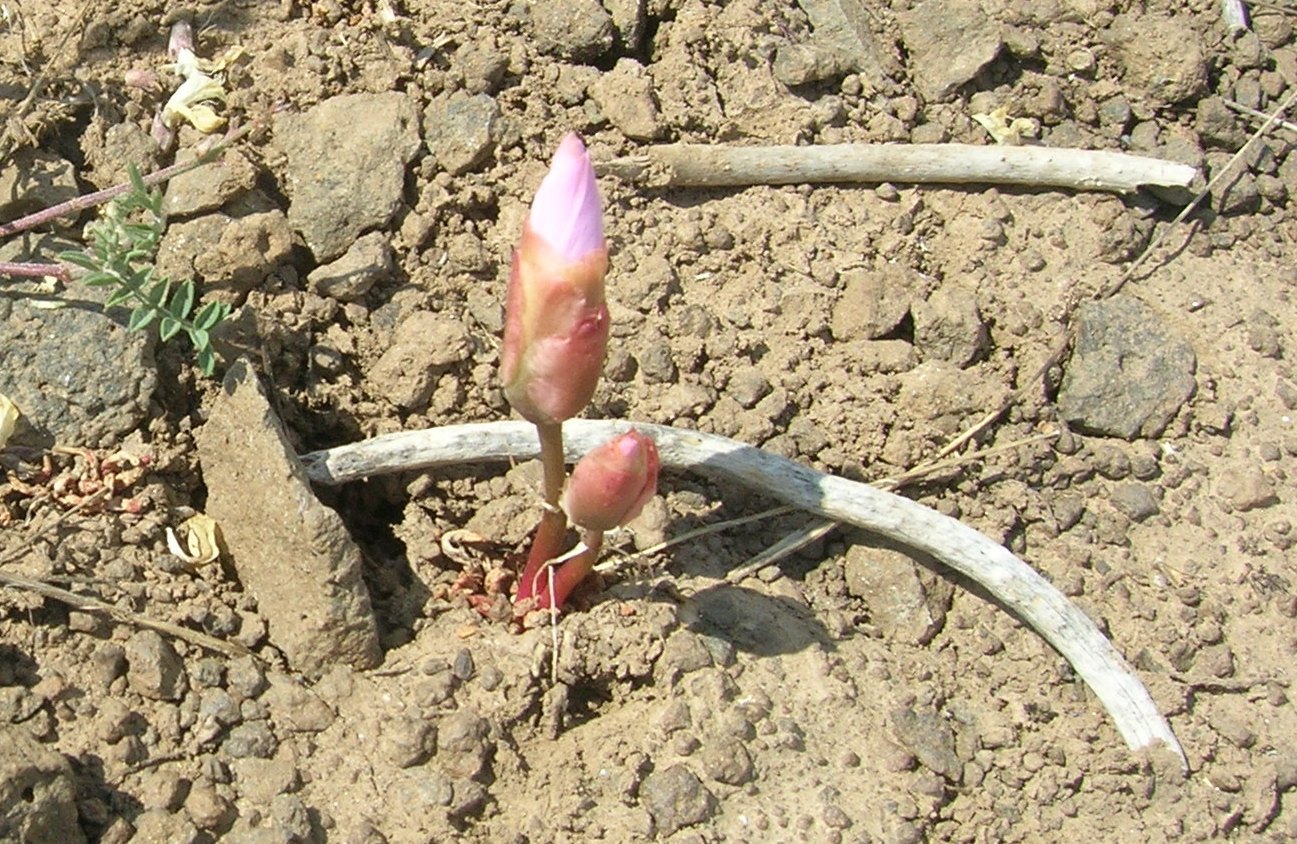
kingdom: Plantae
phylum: Tracheophyta
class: Magnoliopsida
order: Caryophyllales
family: Montiaceae
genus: Lewisia
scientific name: Lewisia rediviva
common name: Bitter-root
